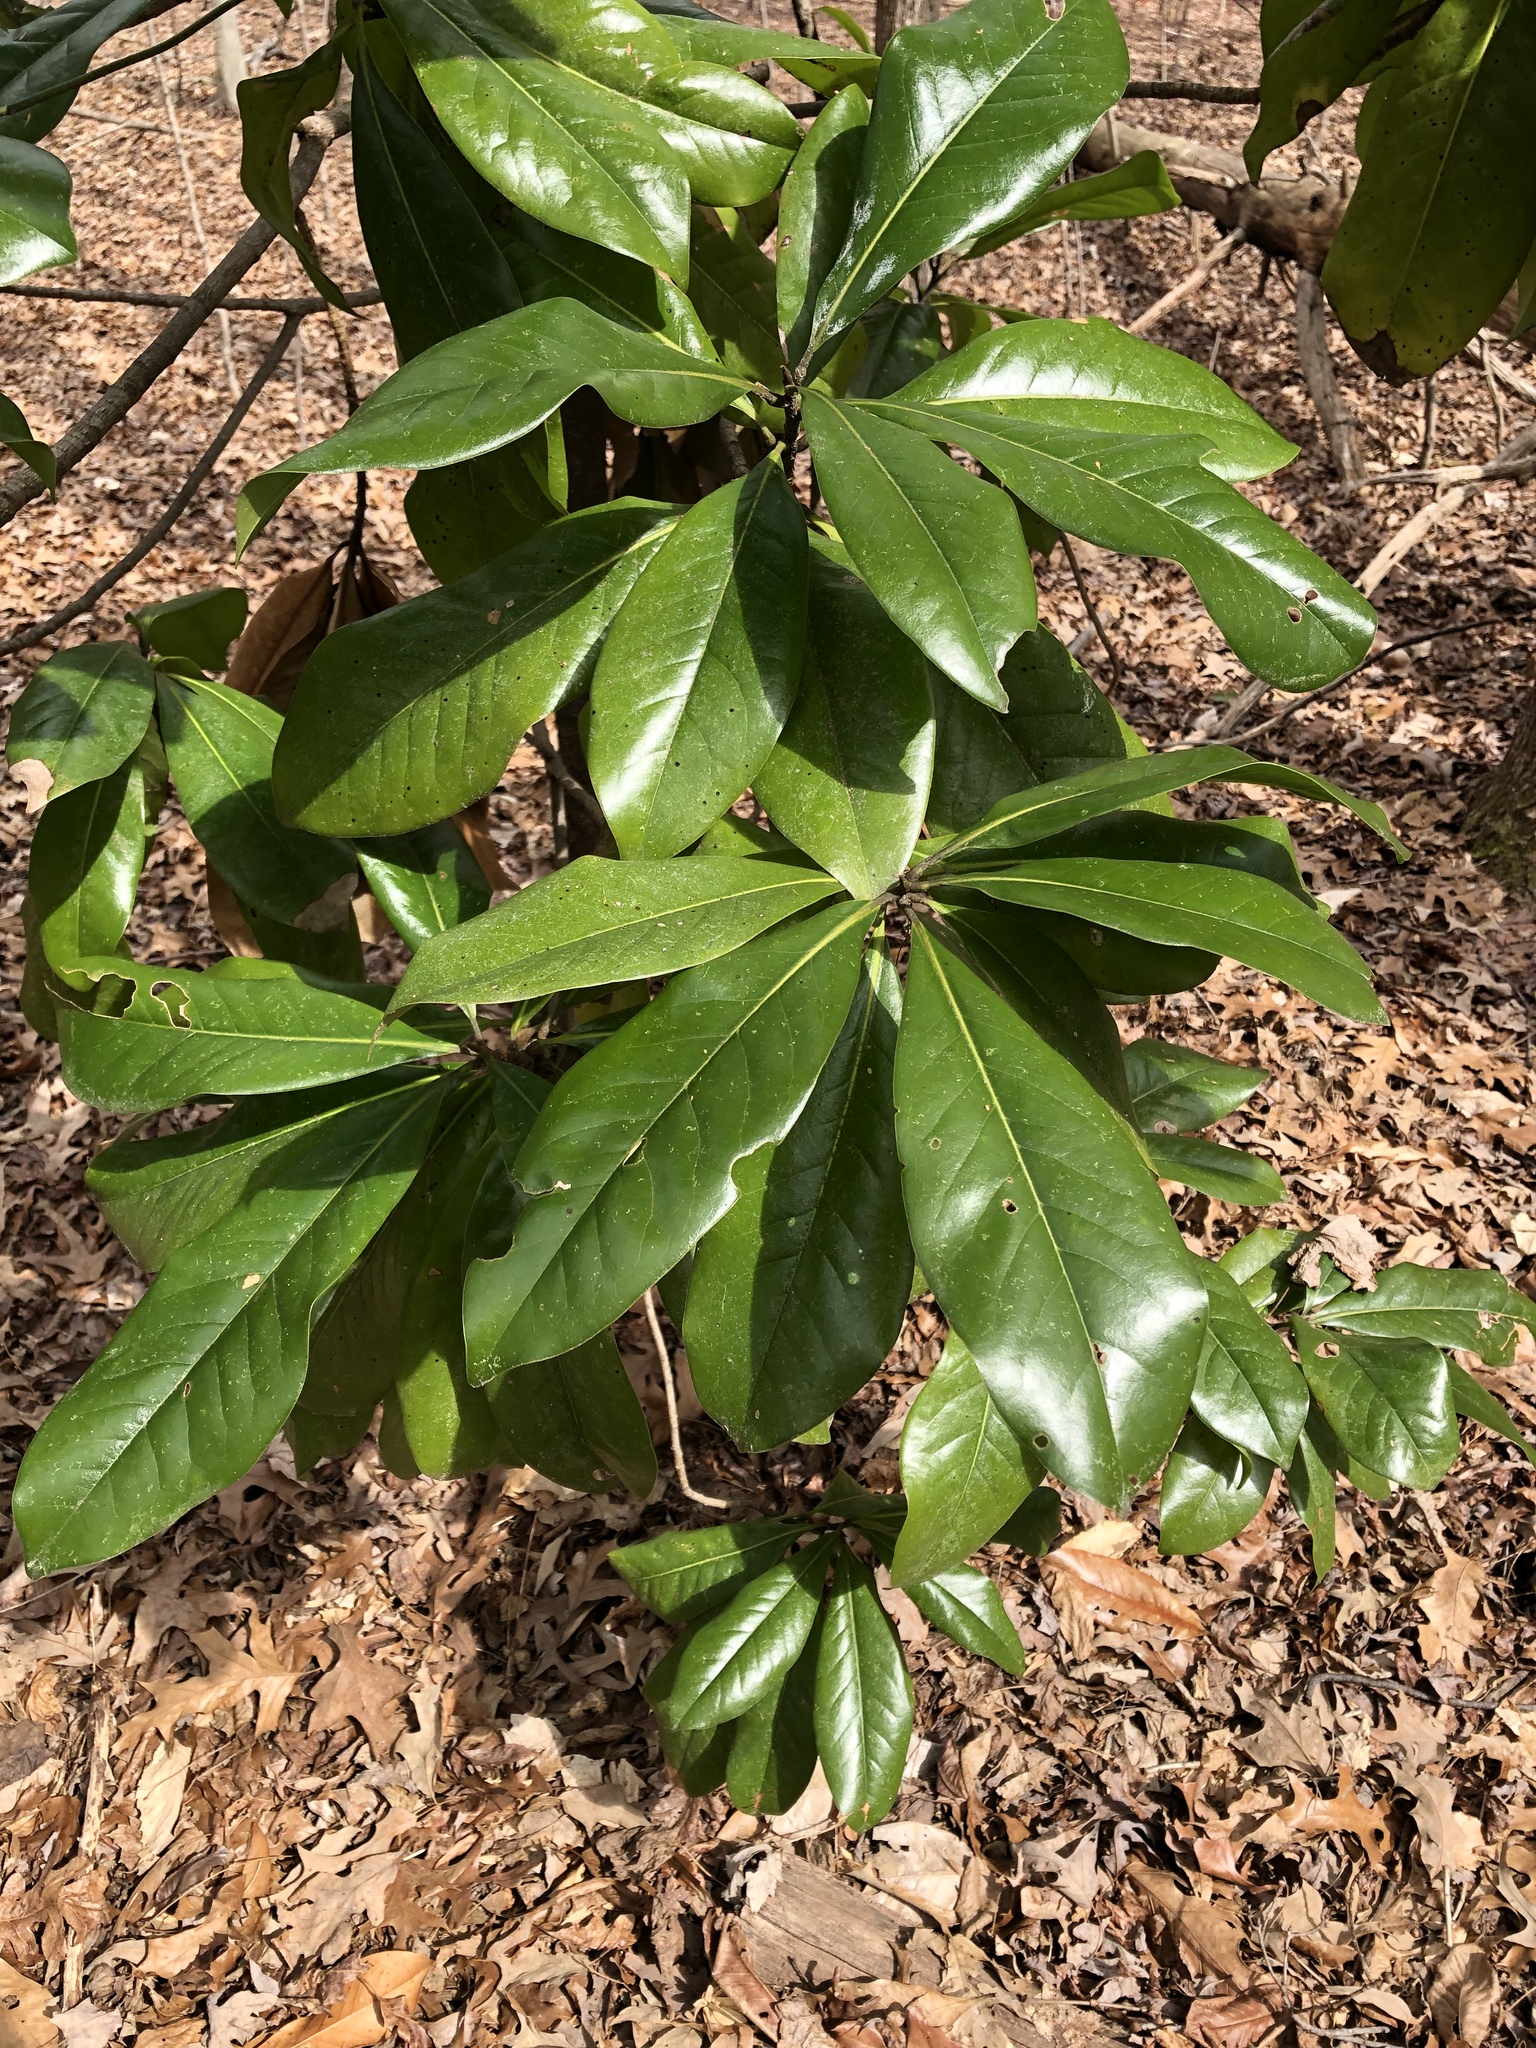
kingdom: Plantae
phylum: Tracheophyta
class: Magnoliopsida
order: Magnoliales
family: Magnoliaceae
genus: Magnolia
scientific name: Magnolia grandiflora
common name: Southern magnolia
